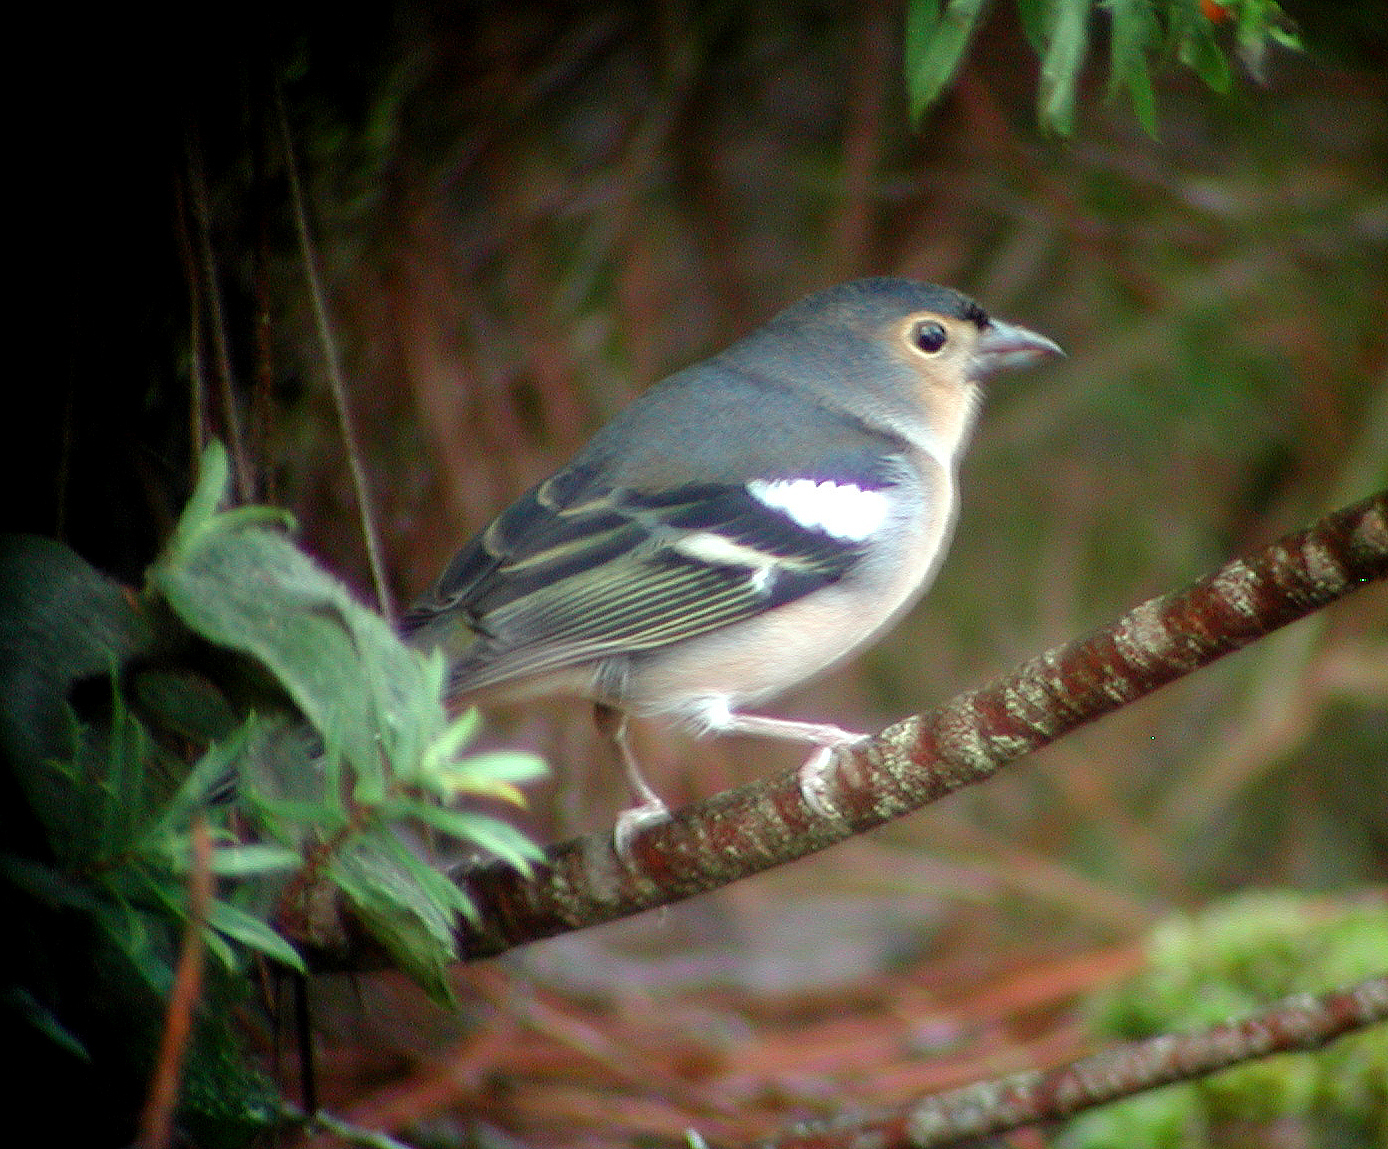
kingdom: Animalia
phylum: Chordata
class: Aves
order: Passeriformes
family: Fringillidae
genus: Fringilla
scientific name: Fringilla canariensis
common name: Canary islands chaffinch
